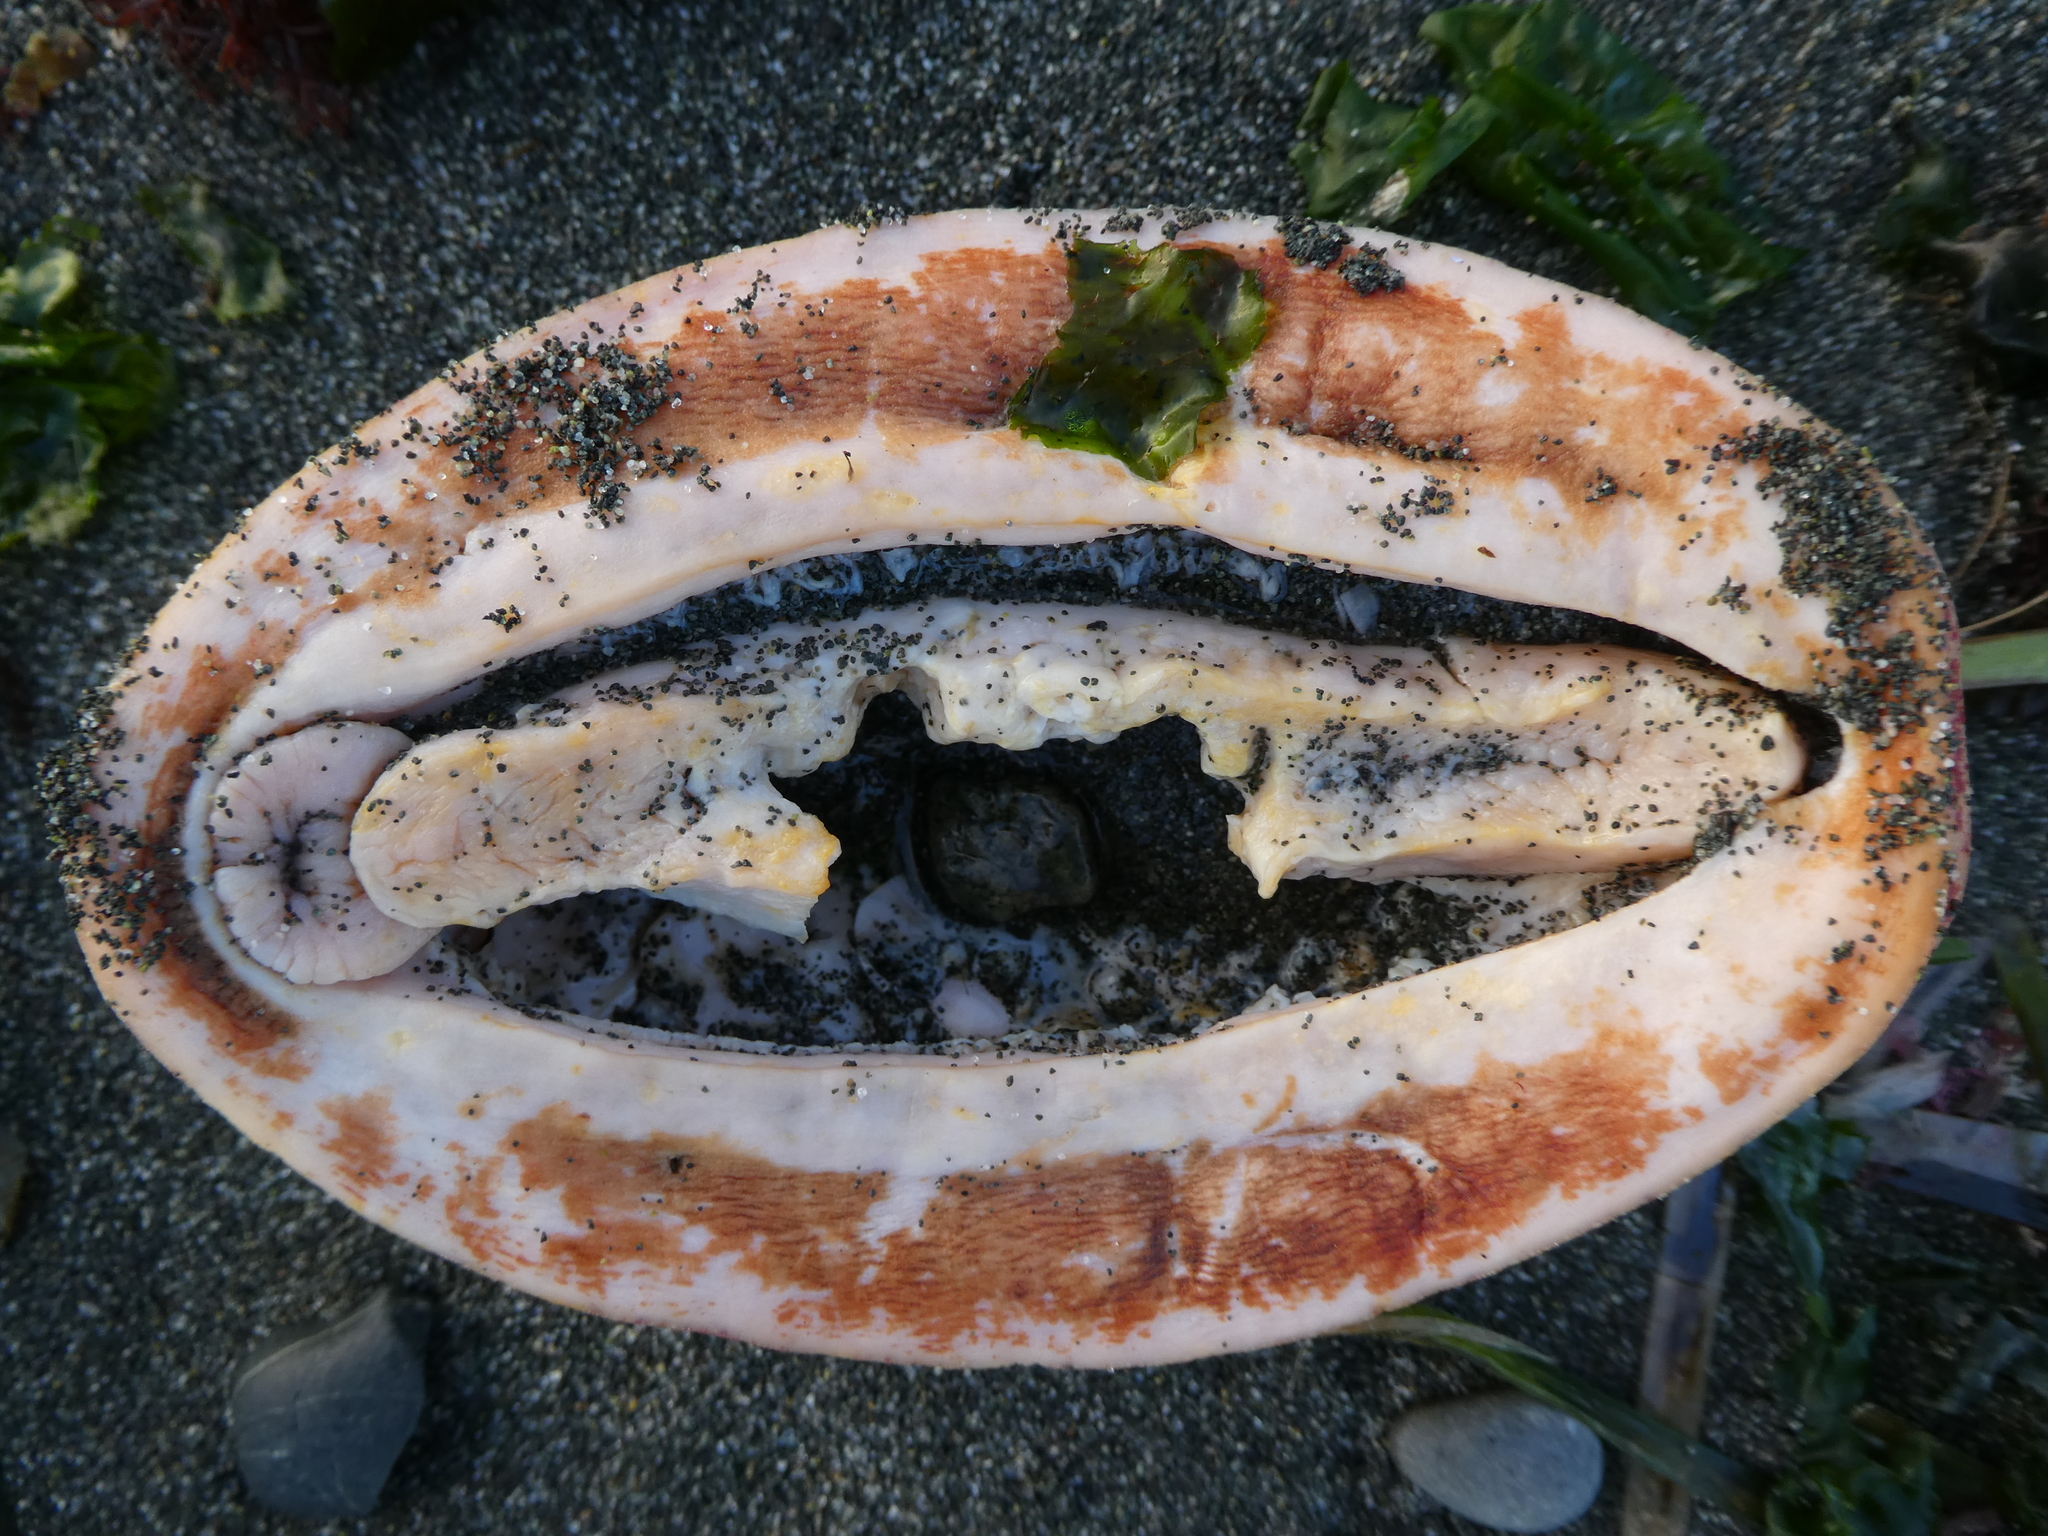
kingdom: Animalia
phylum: Mollusca
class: Polyplacophora
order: Chitonida
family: Acanthochitonidae
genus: Cryptochiton
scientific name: Cryptochiton stelleri
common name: Giant pacific chiton
